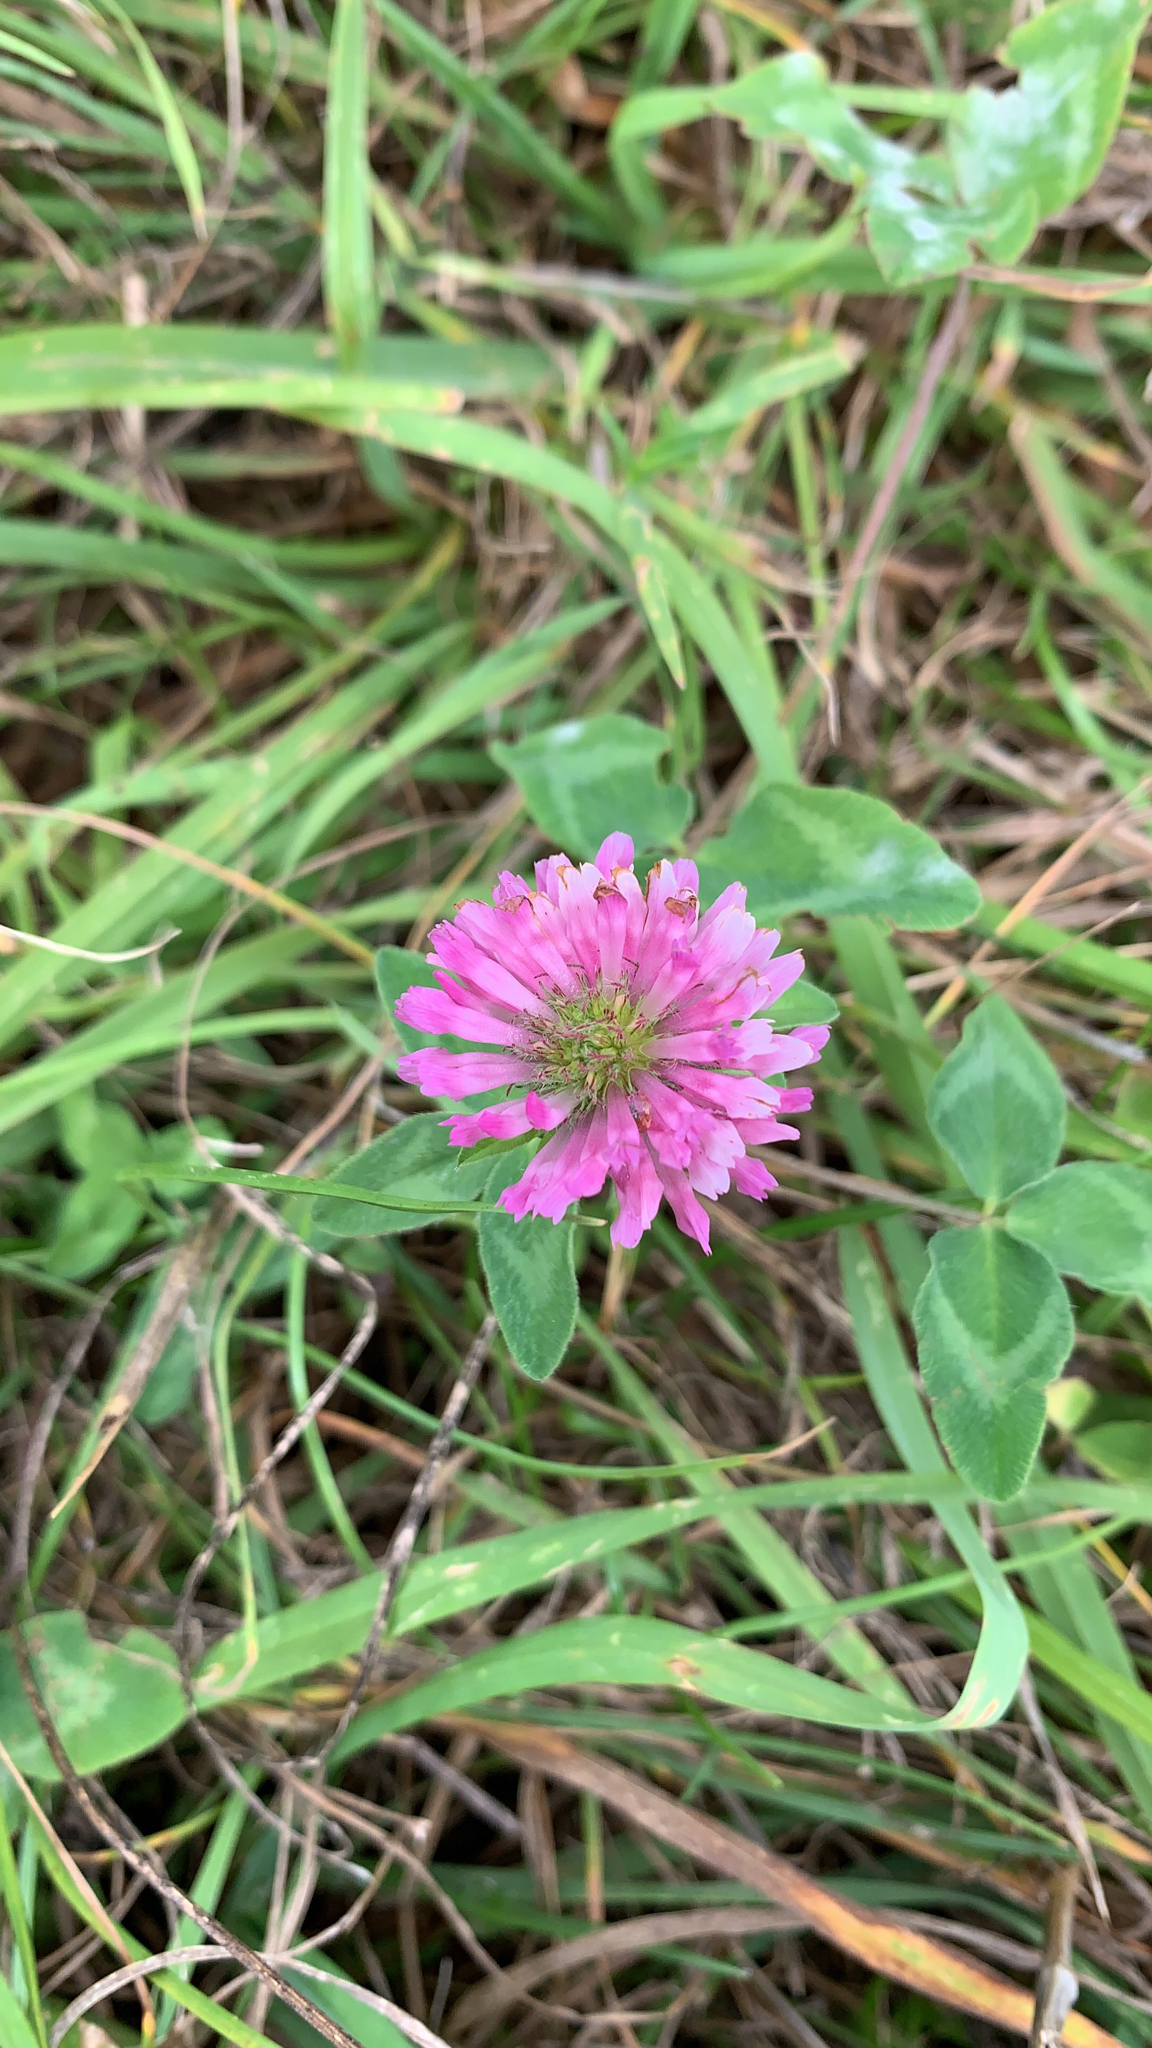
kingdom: Plantae
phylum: Tracheophyta
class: Magnoliopsida
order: Fabales
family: Fabaceae
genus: Trifolium
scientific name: Trifolium pratense
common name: Red clover
